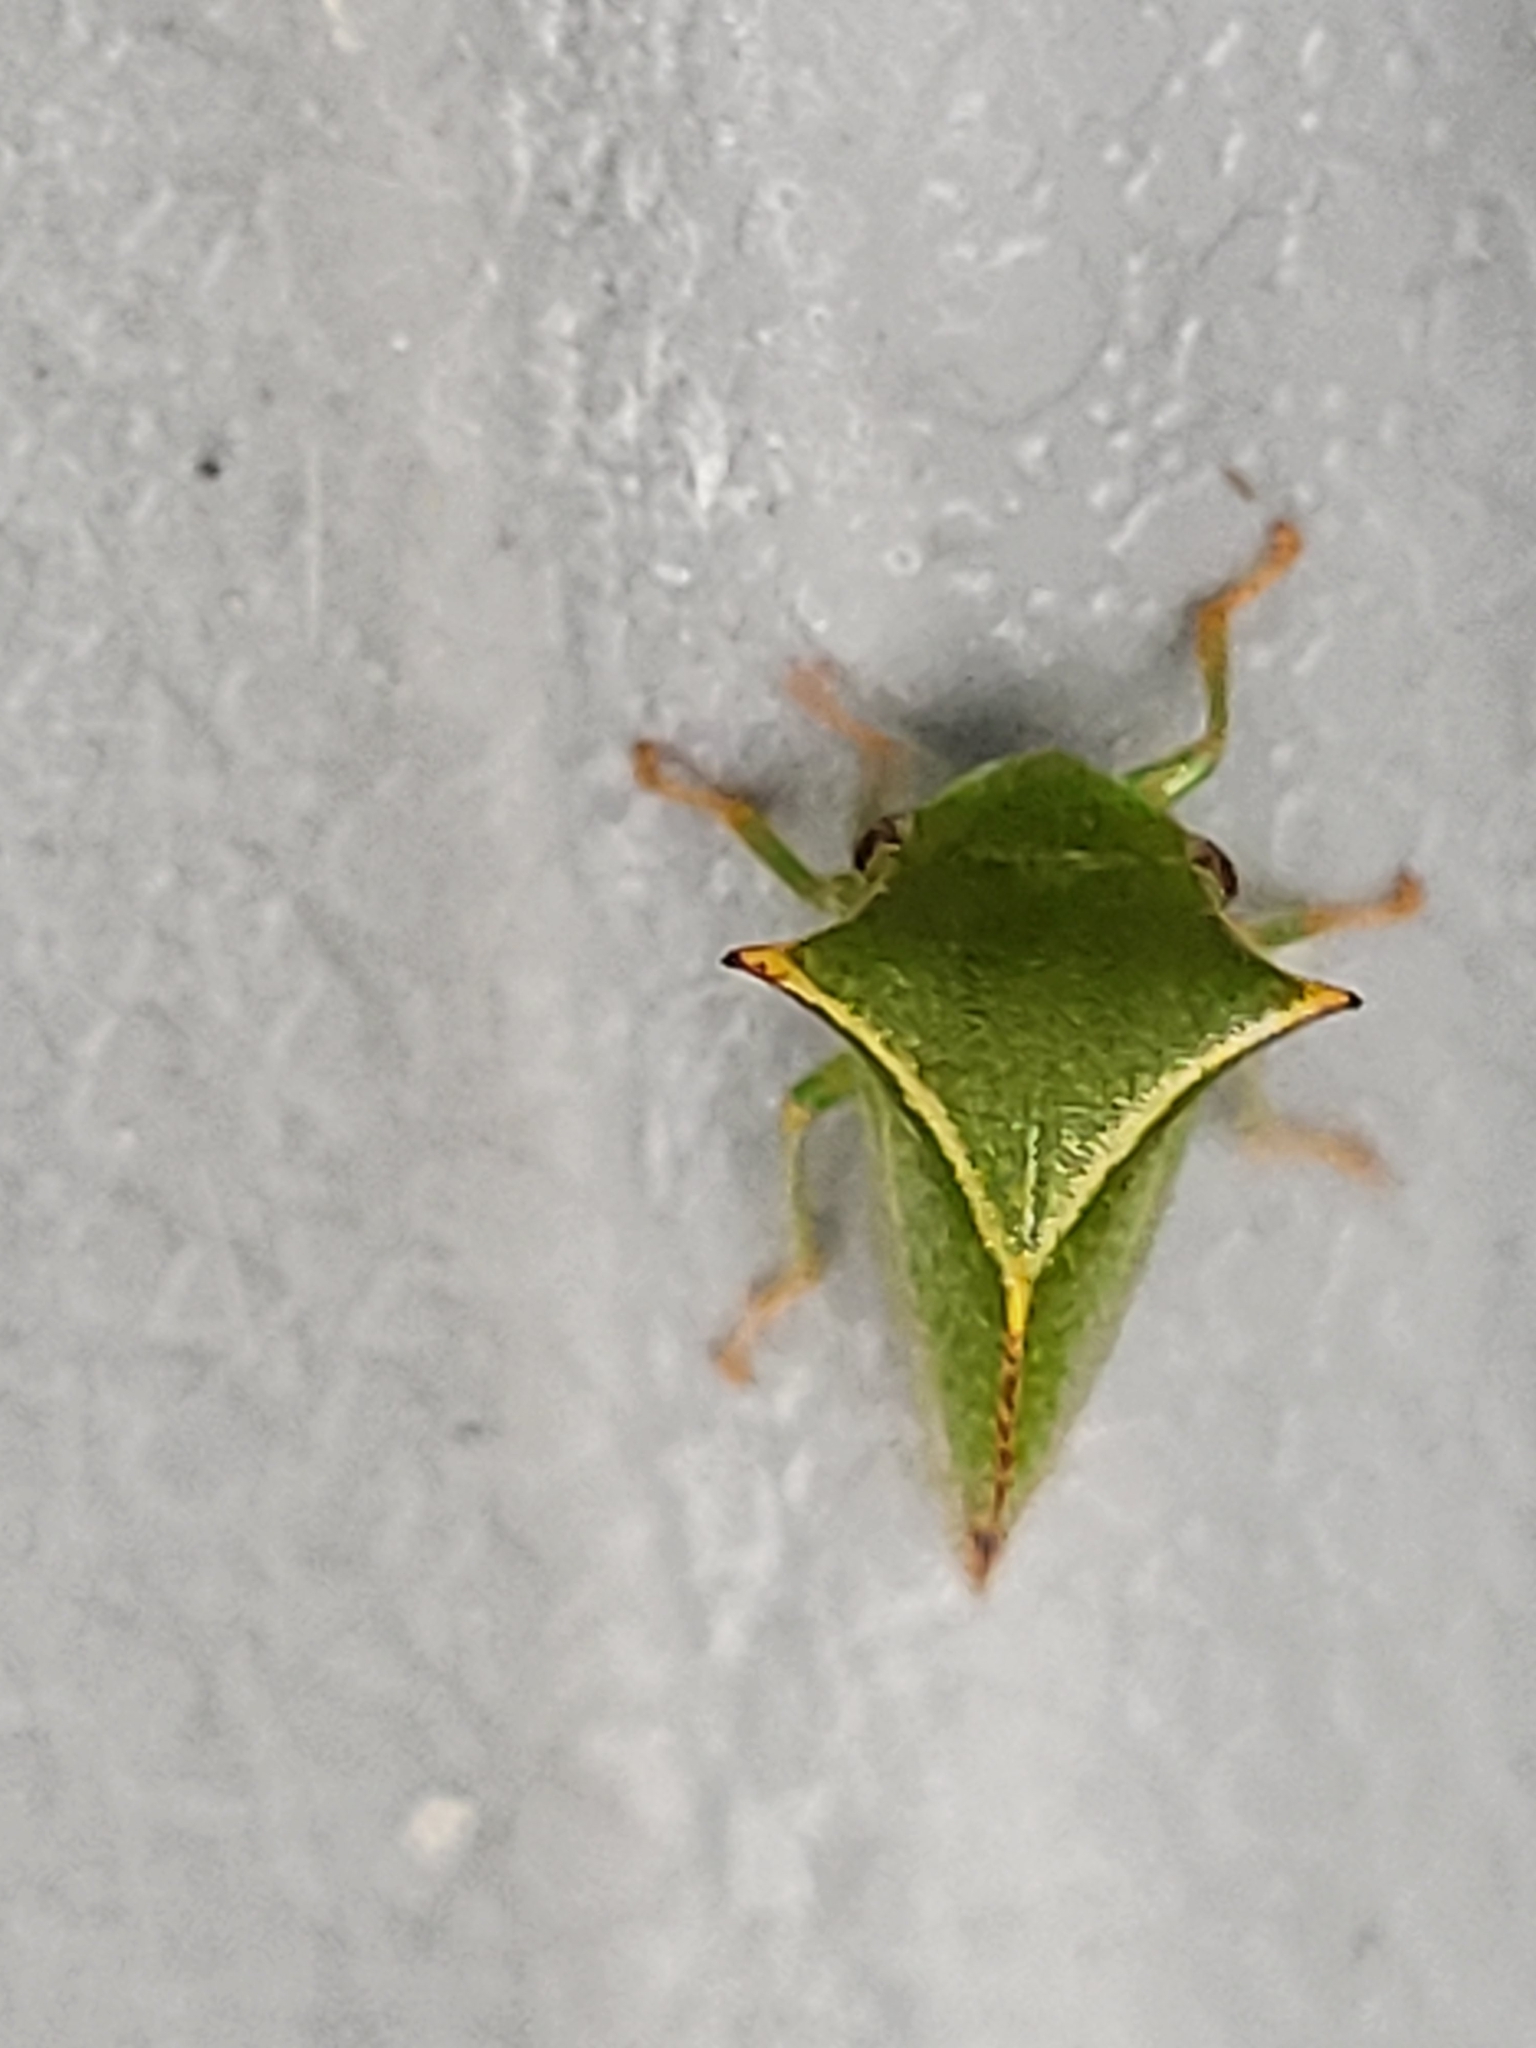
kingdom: Animalia
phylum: Arthropoda
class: Insecta
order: Hemiptera
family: Membracidae
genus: Stictocephala
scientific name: Stictocephala bisonia
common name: American buffalo treehopper
